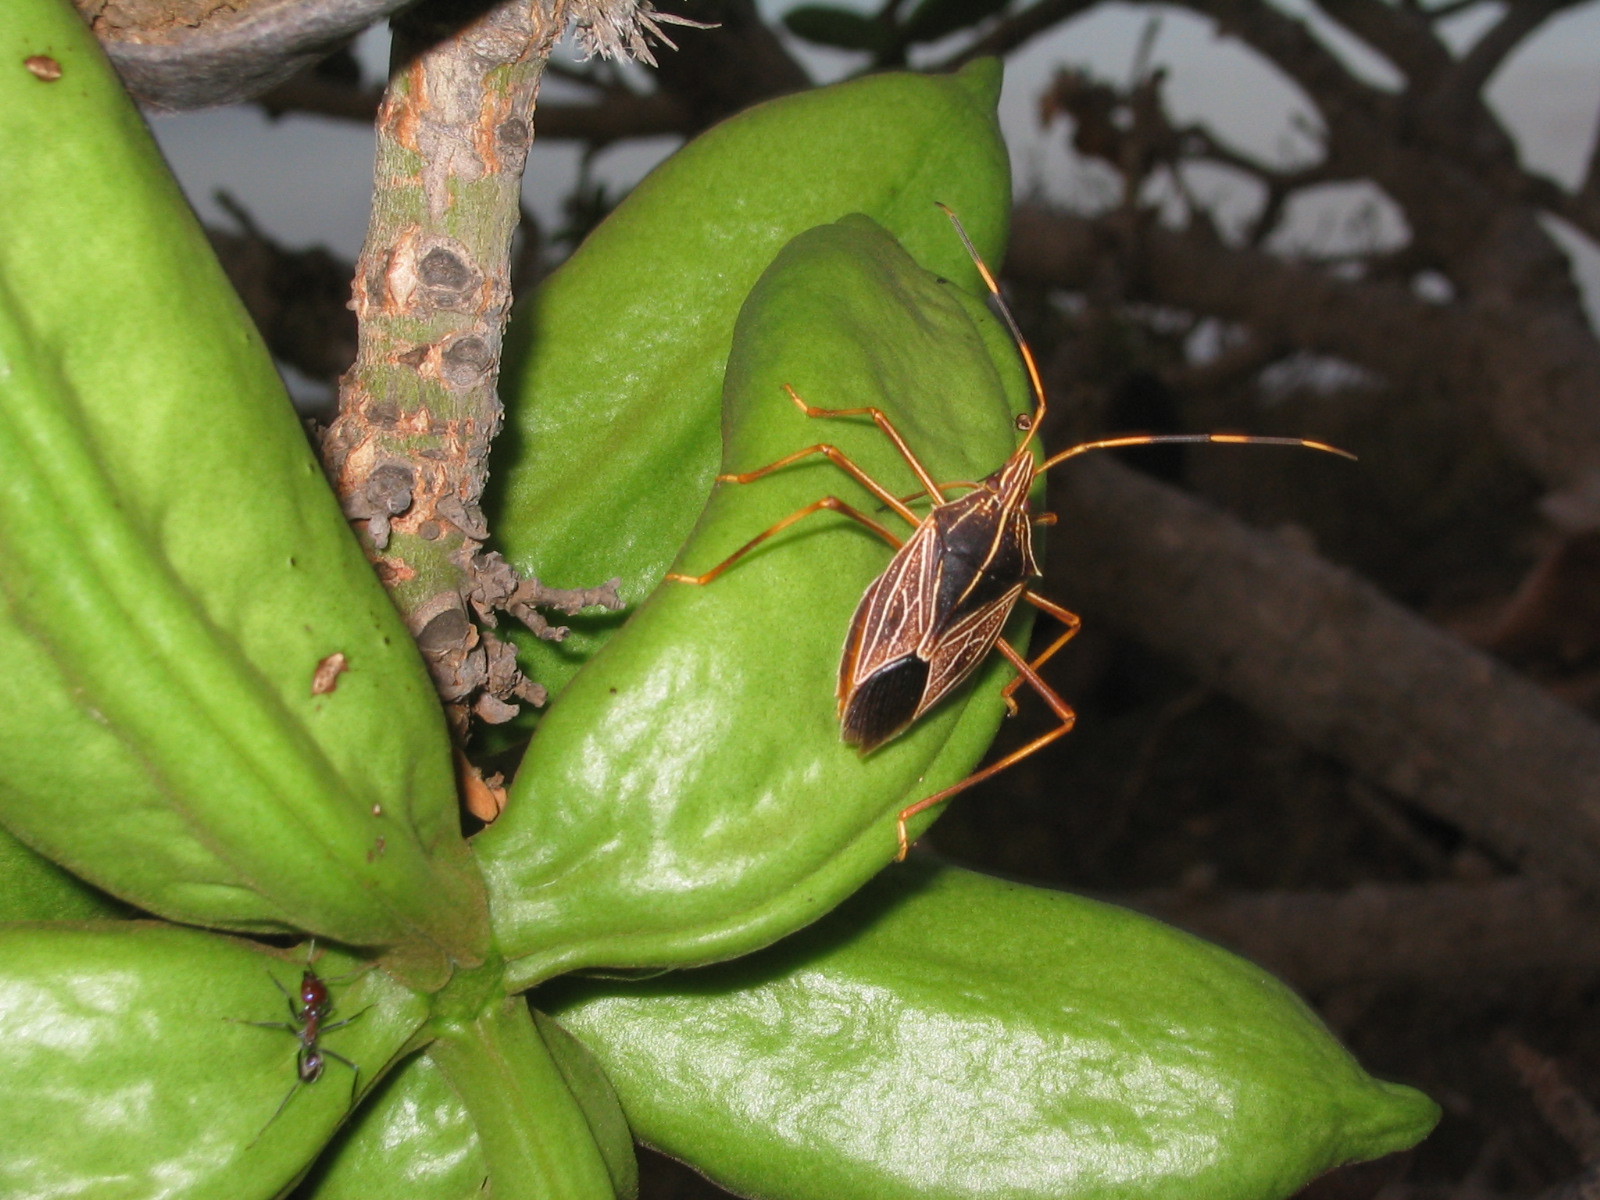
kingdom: Animalia
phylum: Arthropoda
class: Insecta
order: Hemiptera
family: Pentatomidae
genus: Poecilometis
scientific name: Poecilometis
